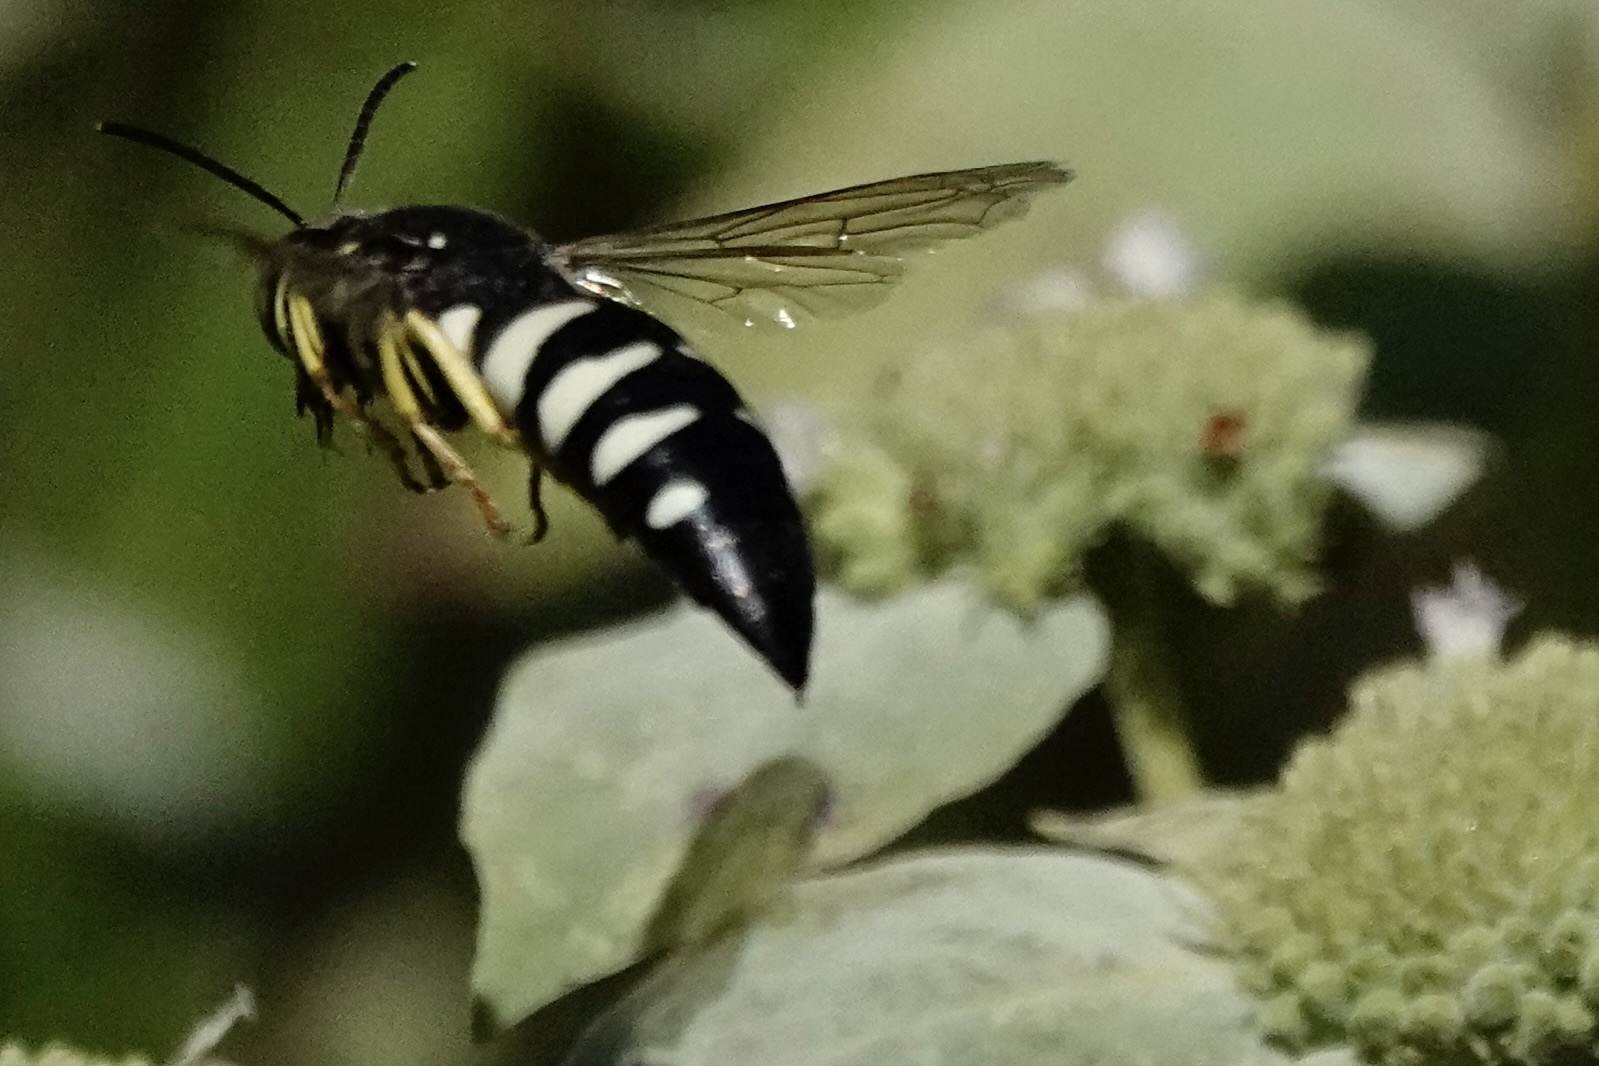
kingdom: Animalia
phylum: Arthropoda
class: Insecta
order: Hymenoptera
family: Crabronidae
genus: Bicyrtes
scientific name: Bicyrtes quadrifasciatus
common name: Four-banded stink bug hunter wasp
